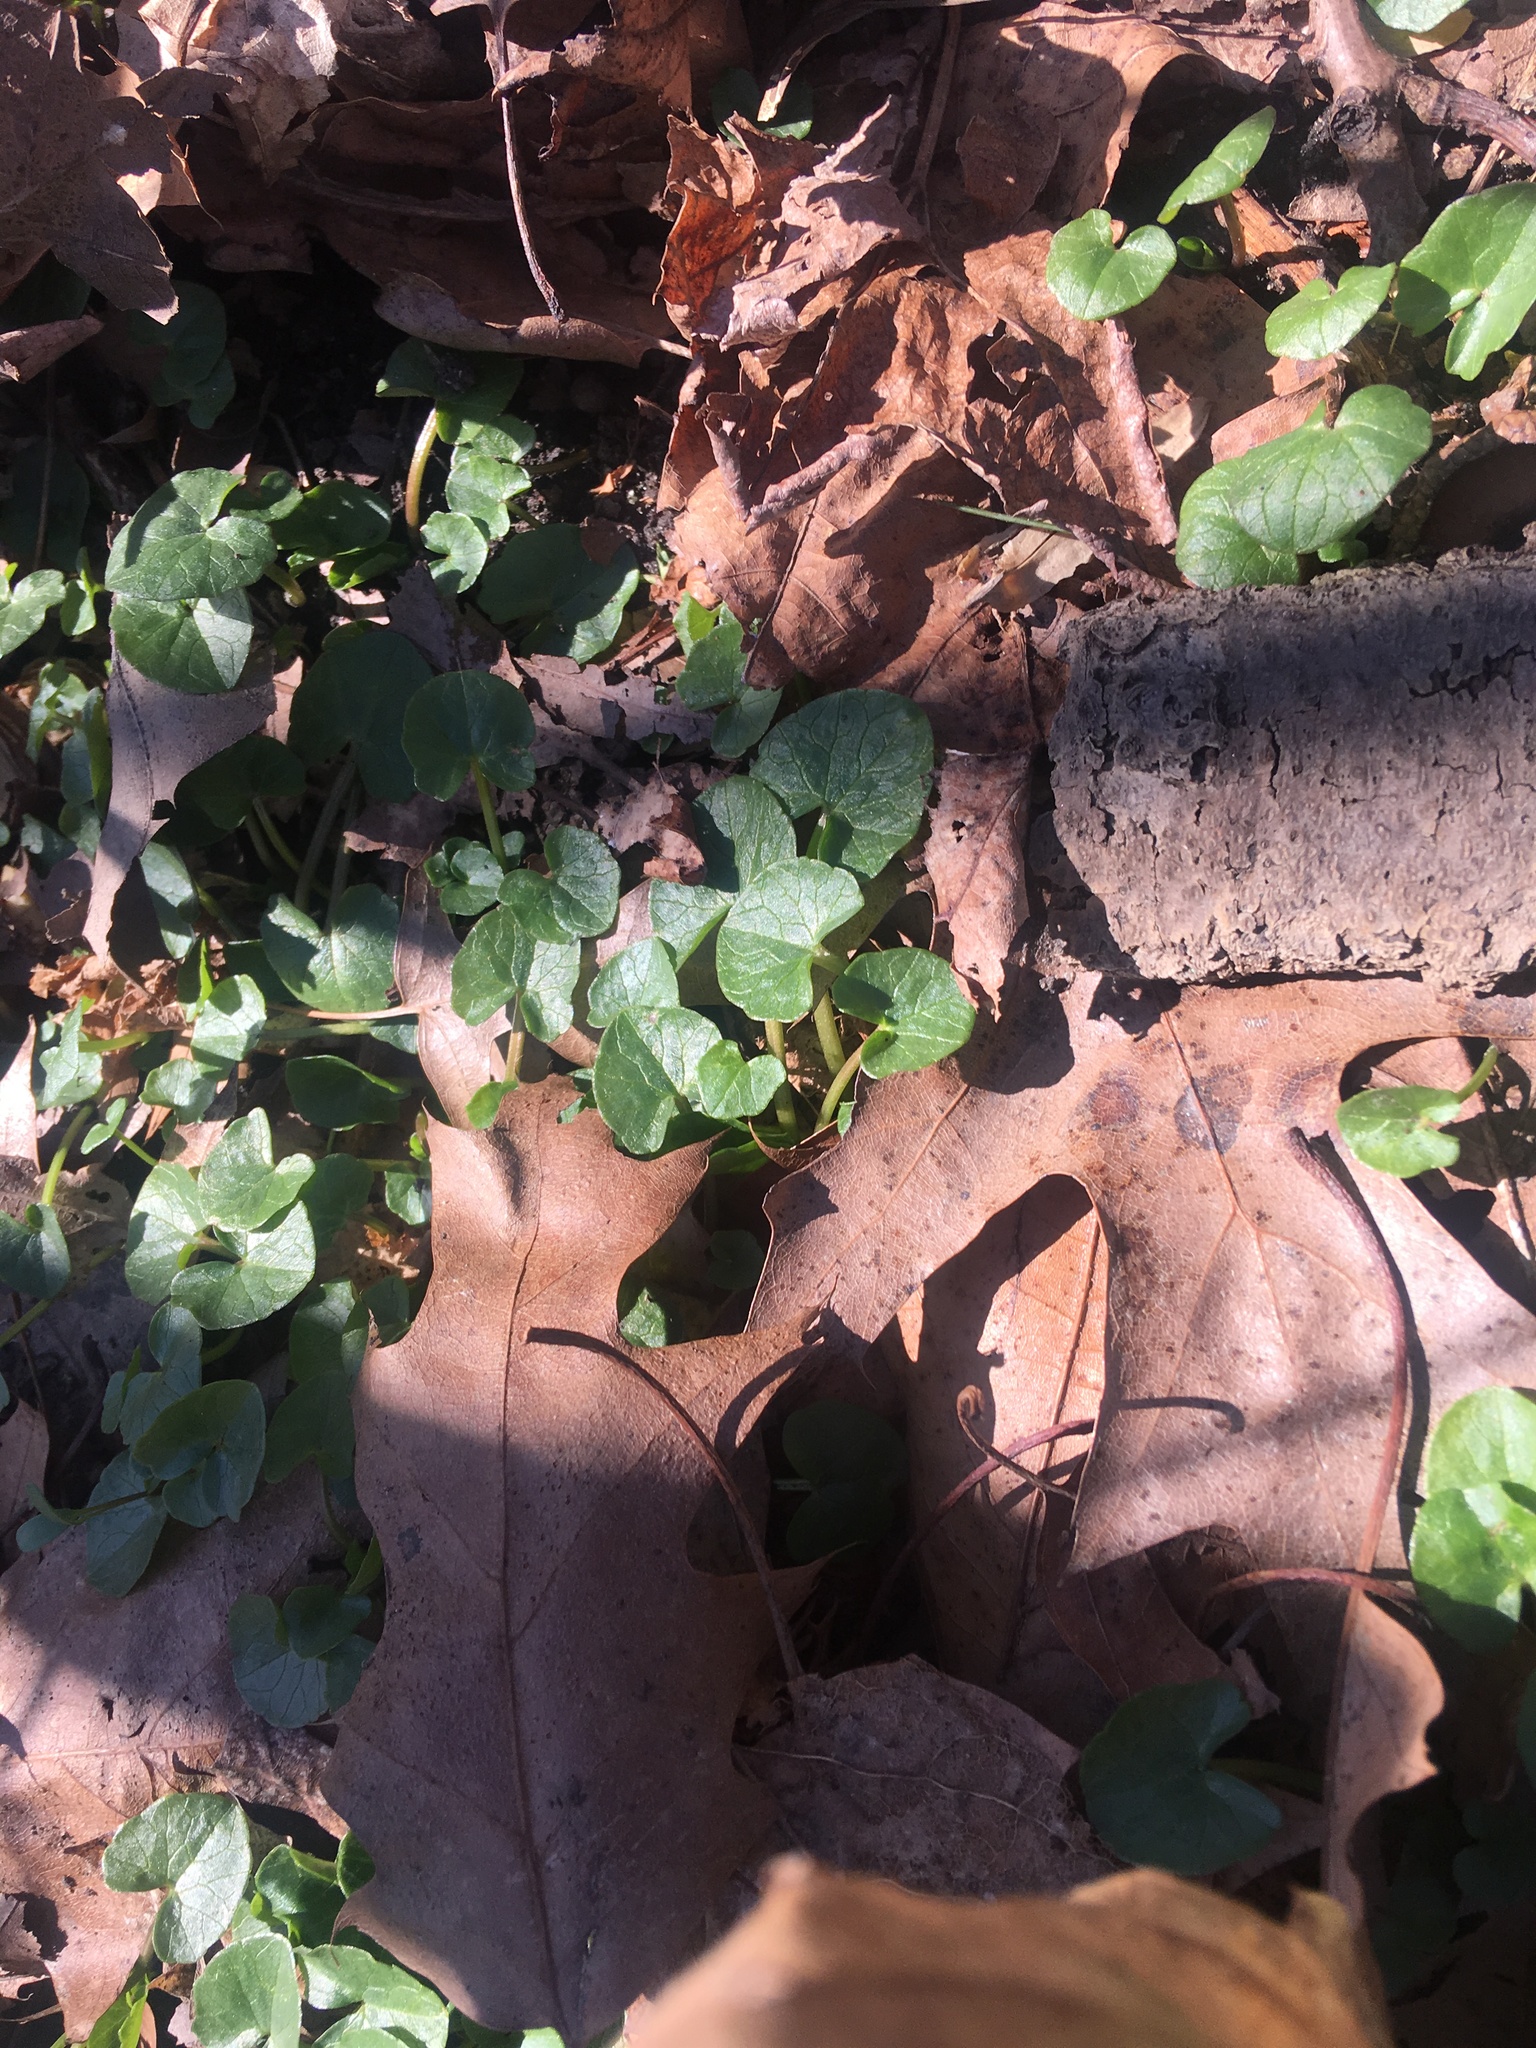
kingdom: Plantae
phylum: Tracheophyta
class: Magnoliopsida
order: Ranunculales
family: Ranunculaceae
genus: Ficaria
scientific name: Ficaria verna
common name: Lesser celandine
